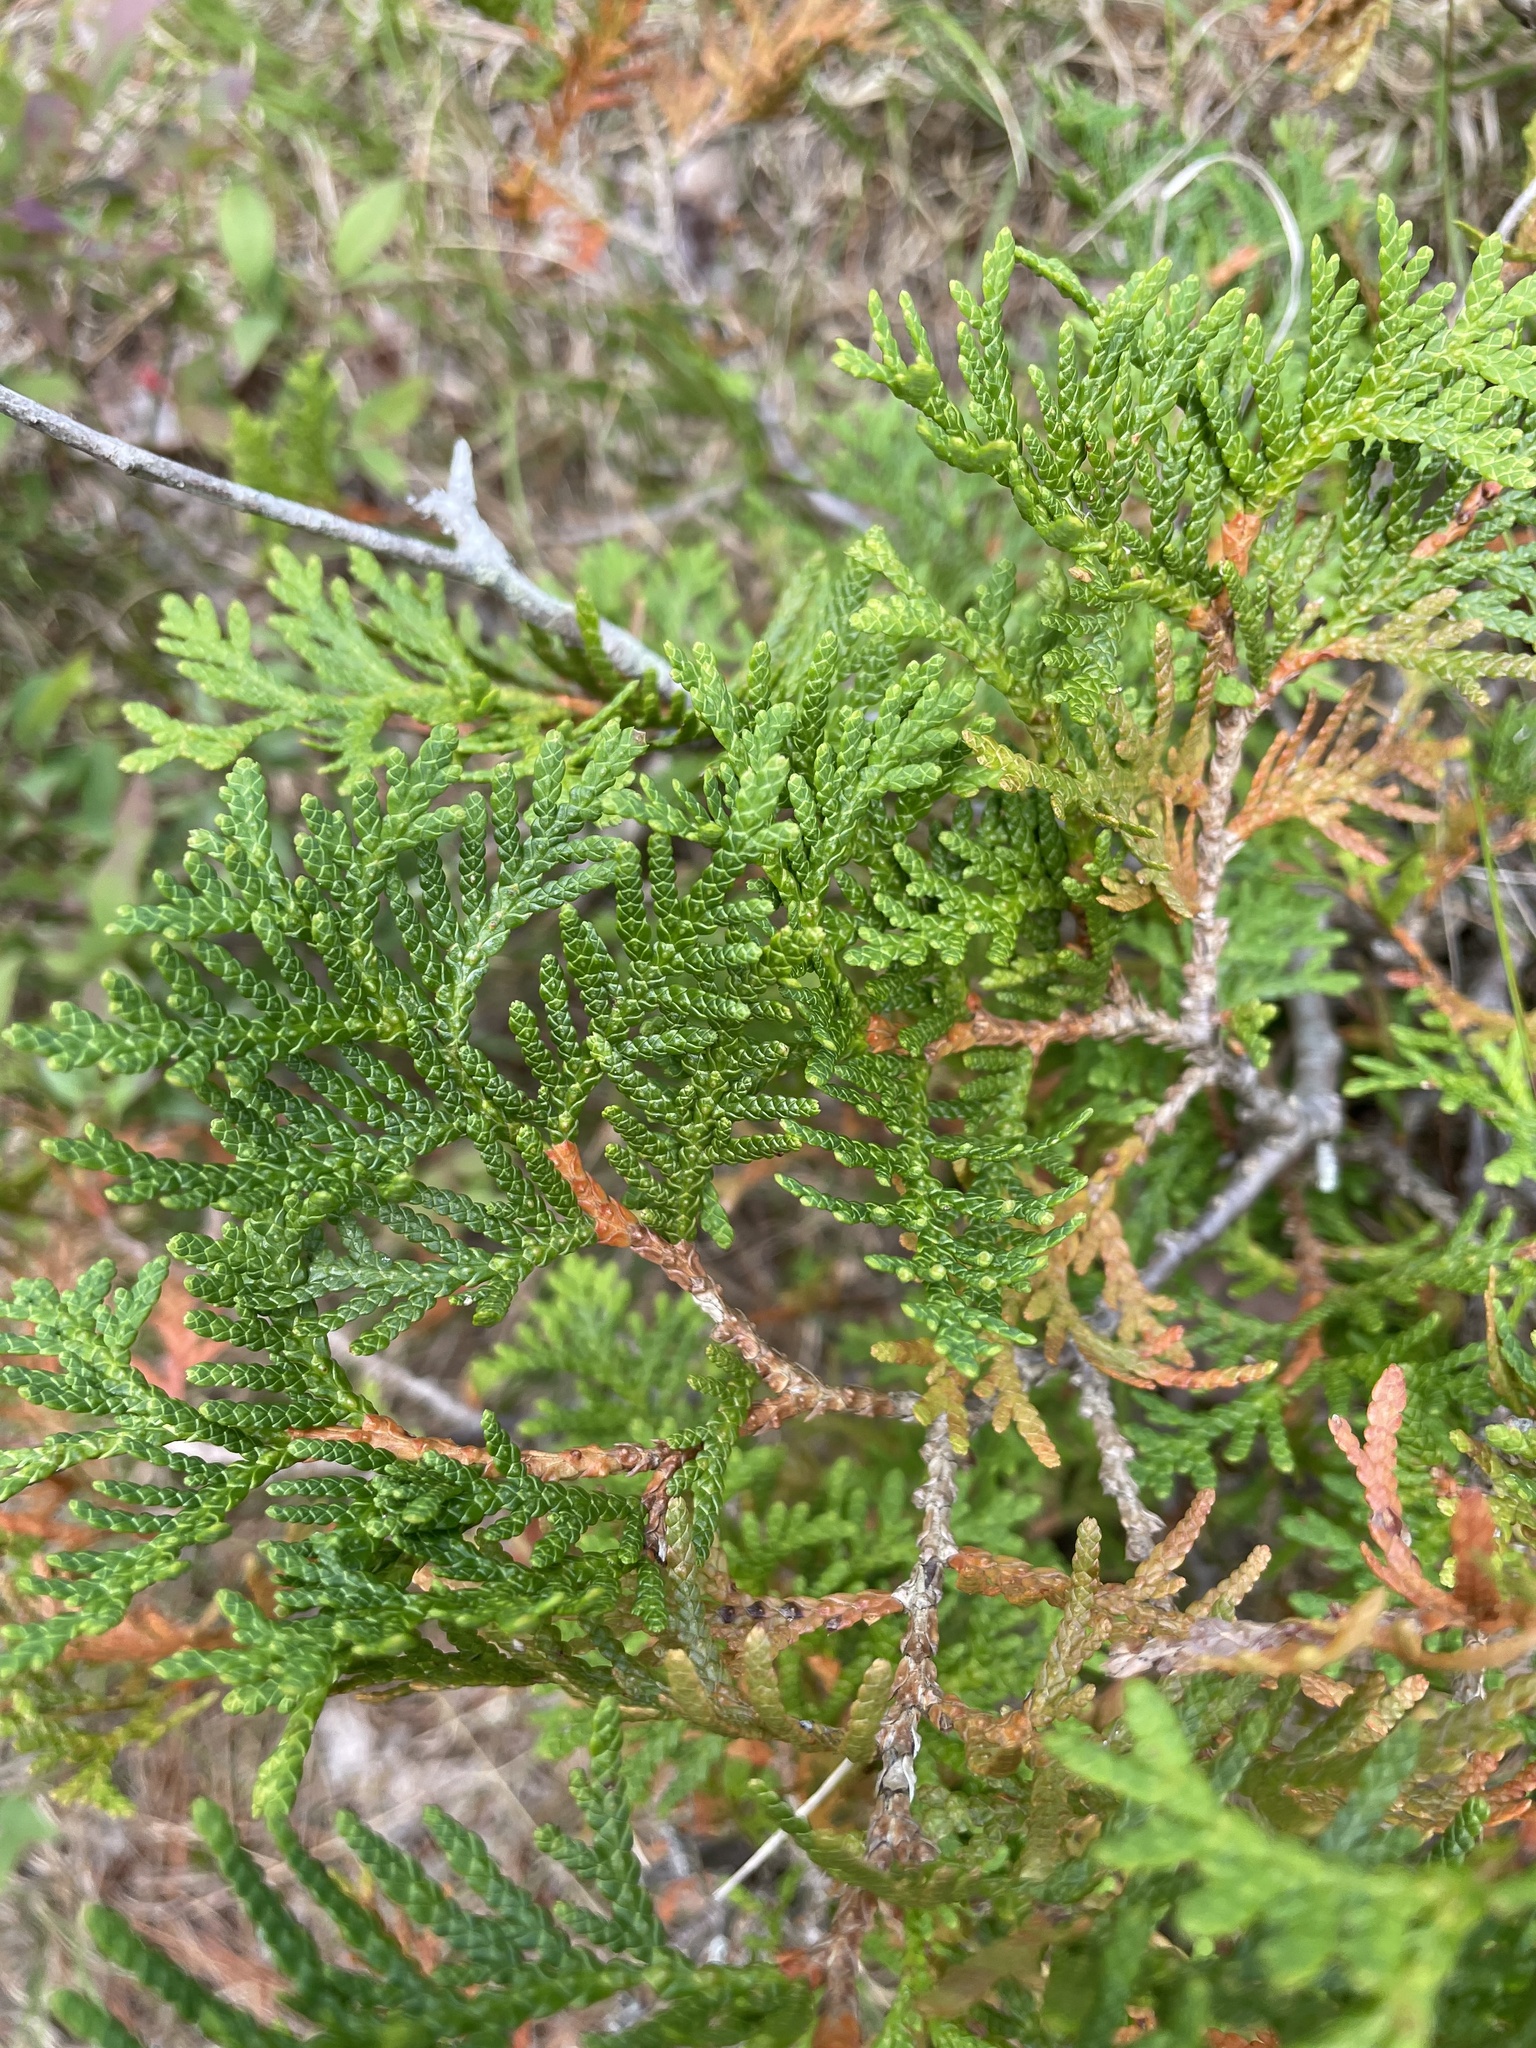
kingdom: Plantae
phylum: Tracheophyta
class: Pinopsida
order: Pinales
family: Cupressaceae
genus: Thuja
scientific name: Thuja occidentalis
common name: Northern white-cedar
